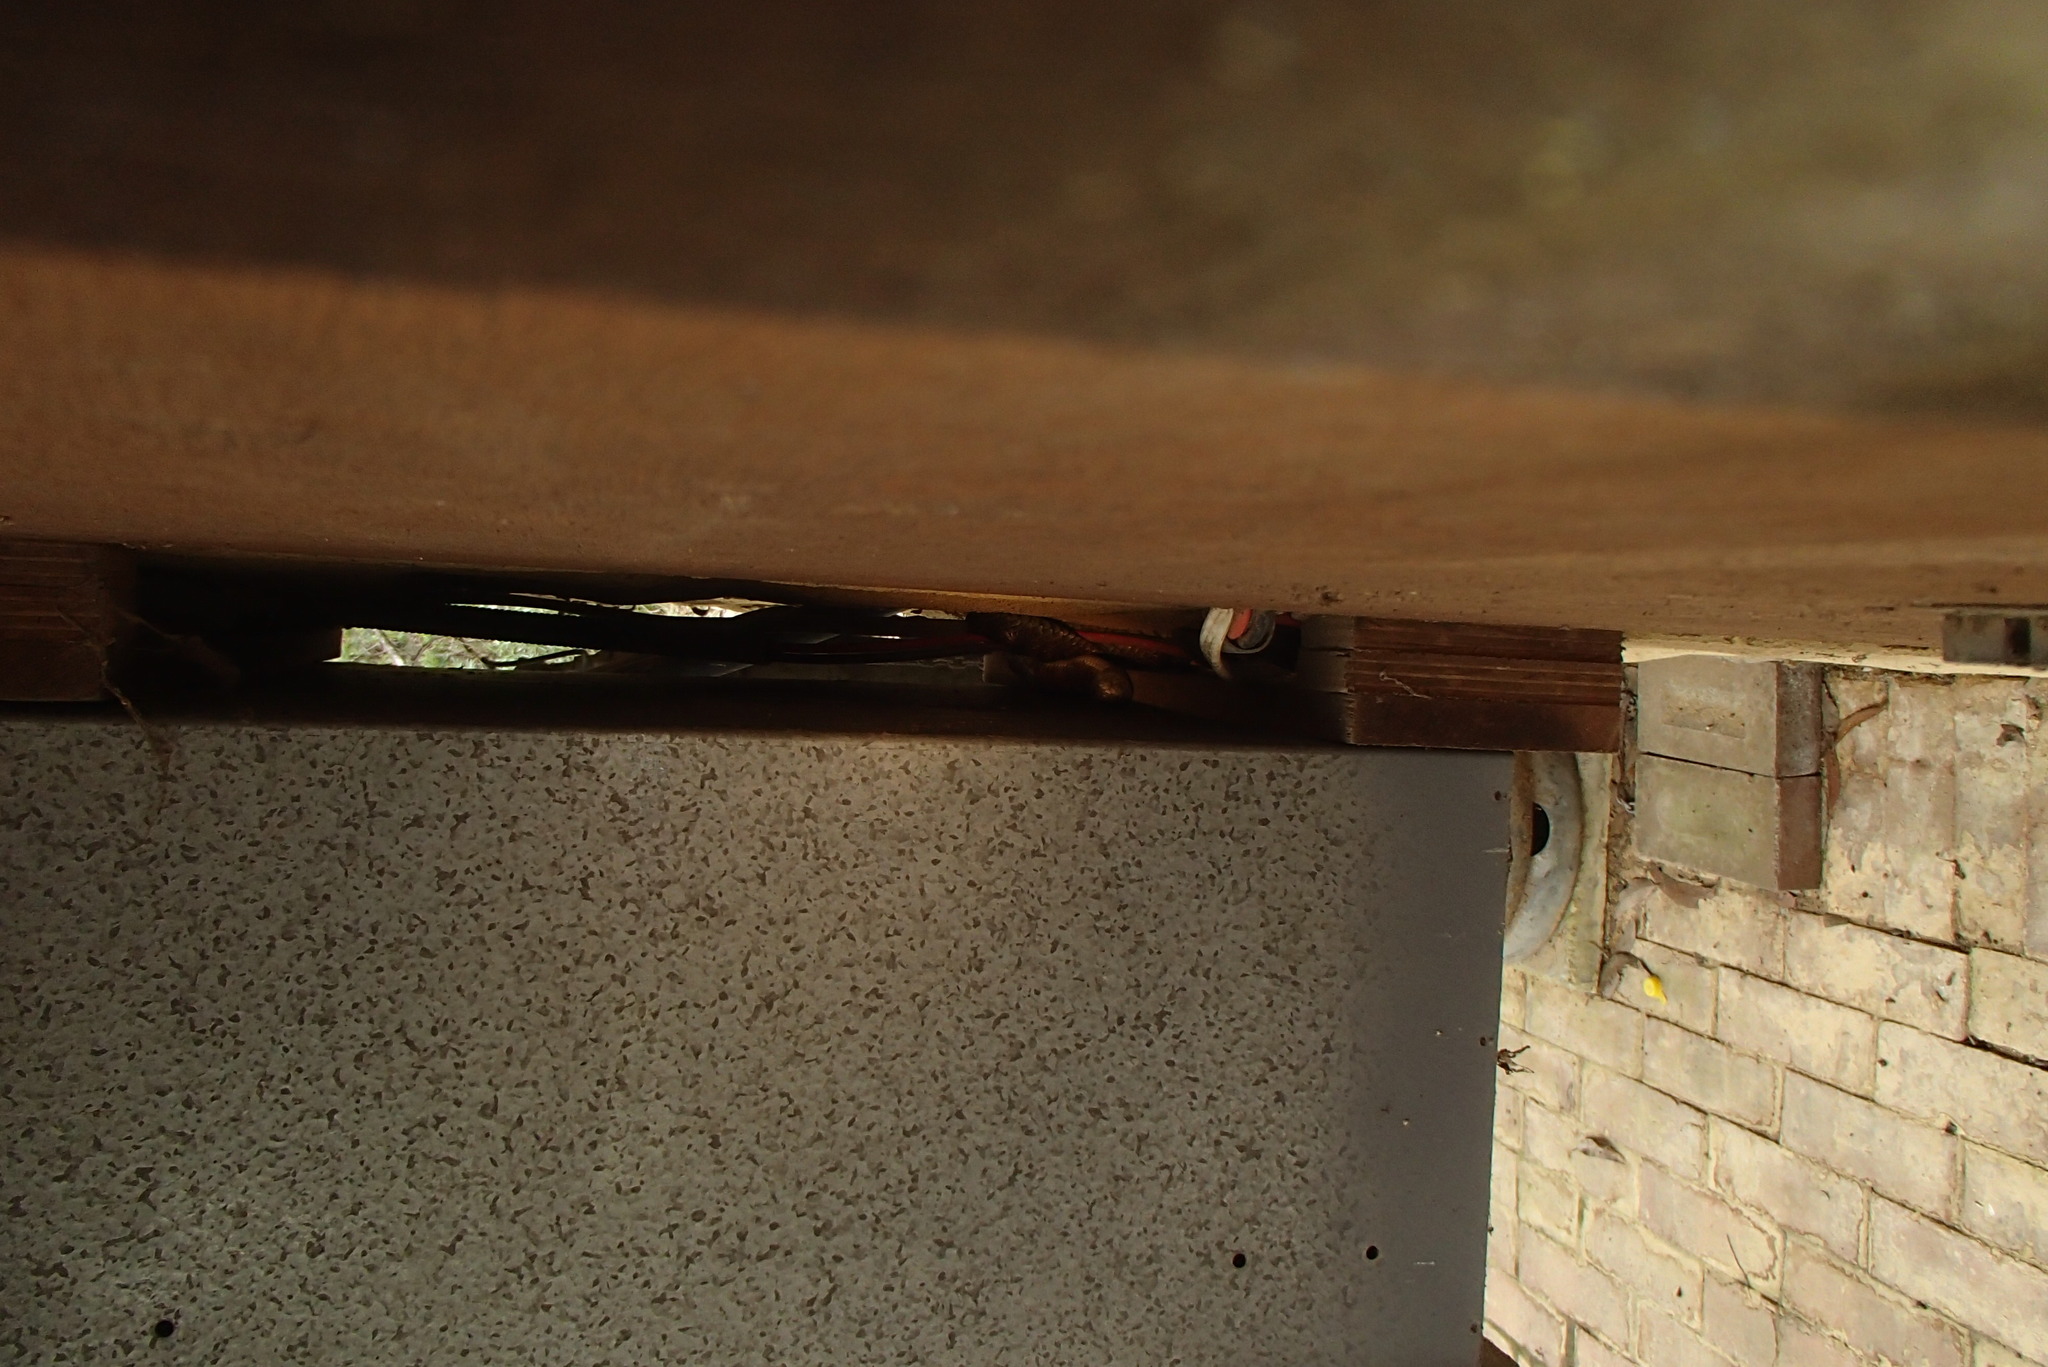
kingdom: Animalia
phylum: Chordata
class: Squamata
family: Elapidae
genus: Notechis
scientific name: Notechis scutatus
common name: Mainland tiger snake
